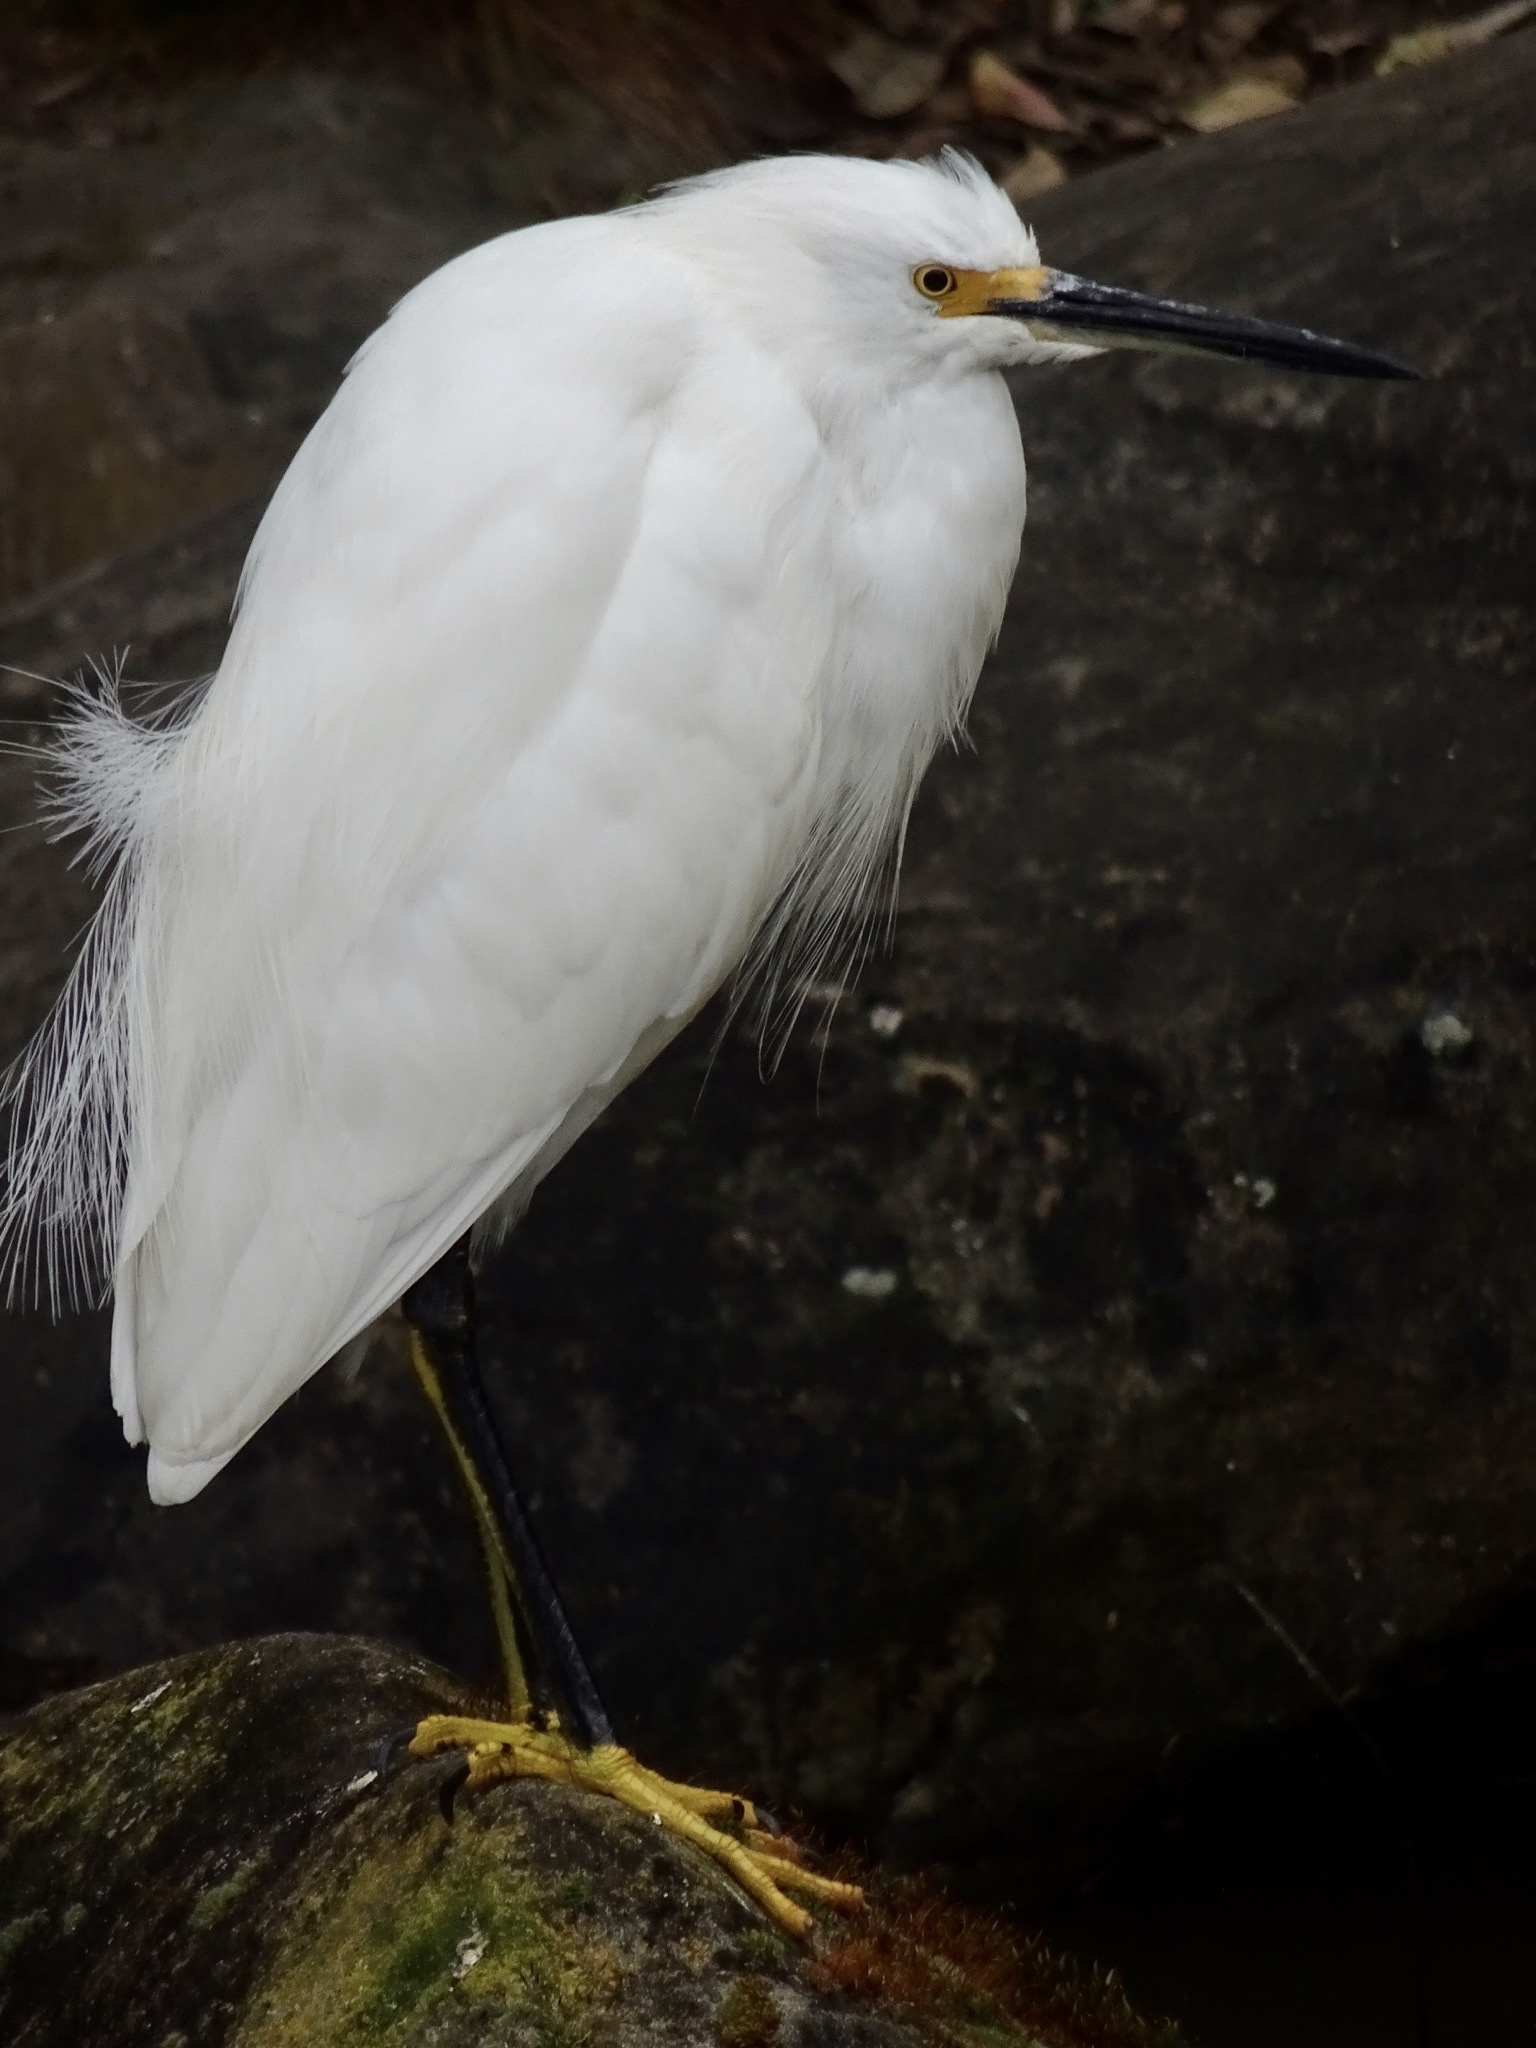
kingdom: Animalia
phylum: Chordata
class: Aves
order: Pelecaniformes
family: Ardeidae
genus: Egretta
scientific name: Egretta thula
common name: Snowy egret
